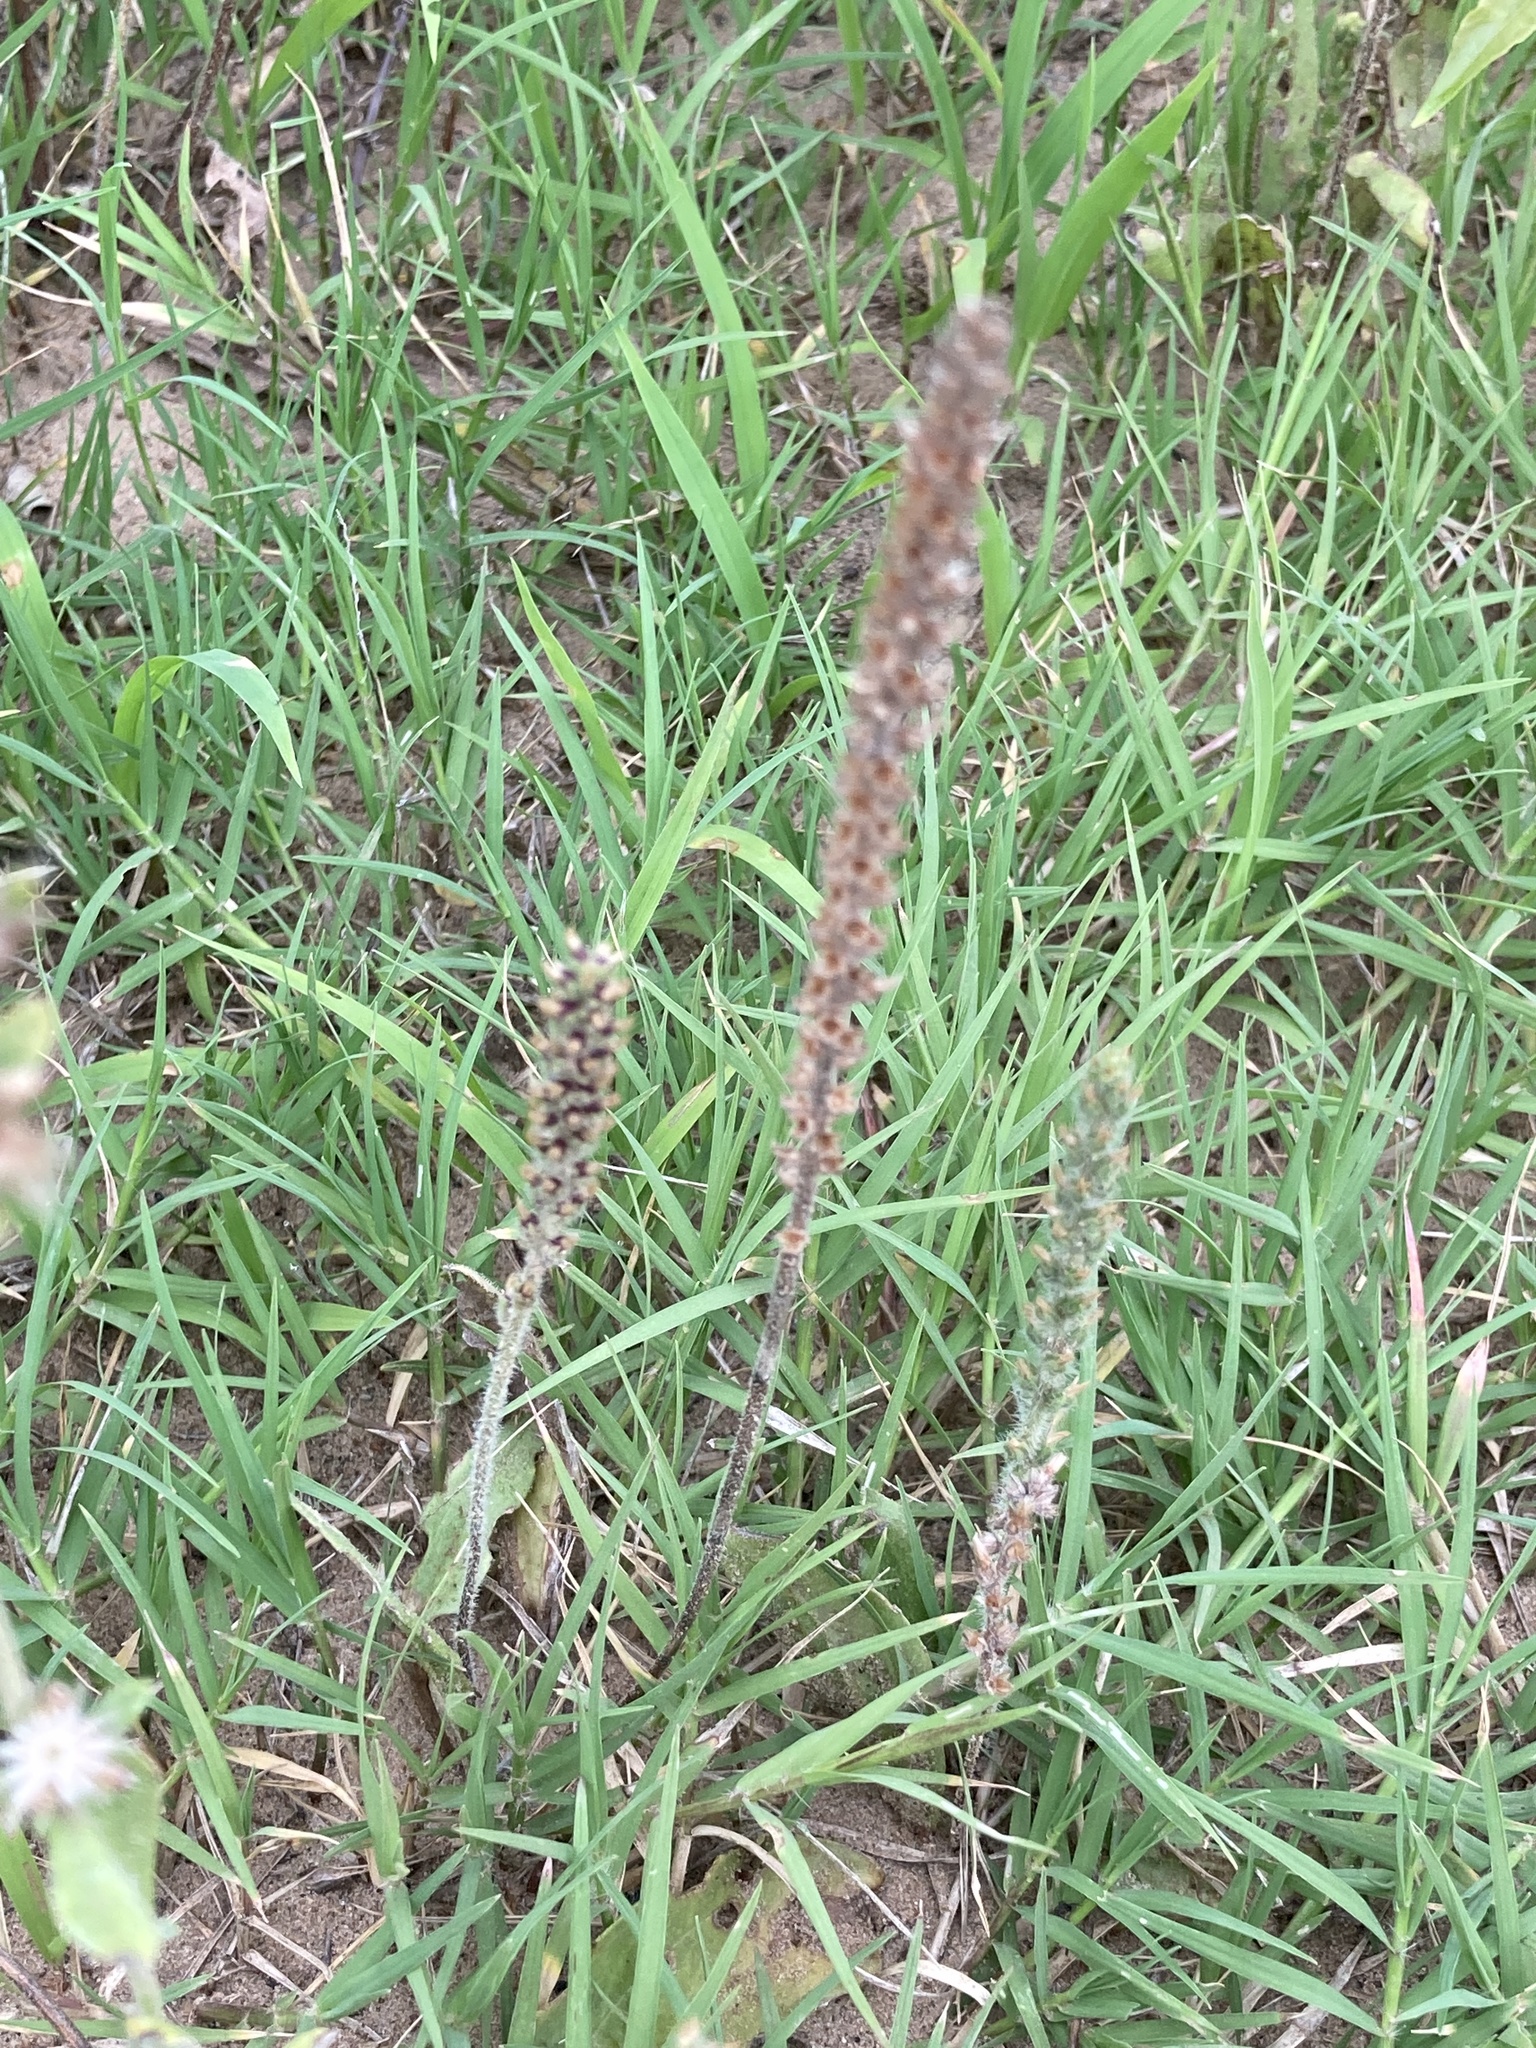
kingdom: Plantae
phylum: Tracheophyta
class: Magnoliopsida
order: Lamiales
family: Plantaginaceae
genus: Plantago
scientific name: Plantago virginica
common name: Hoary plantain
